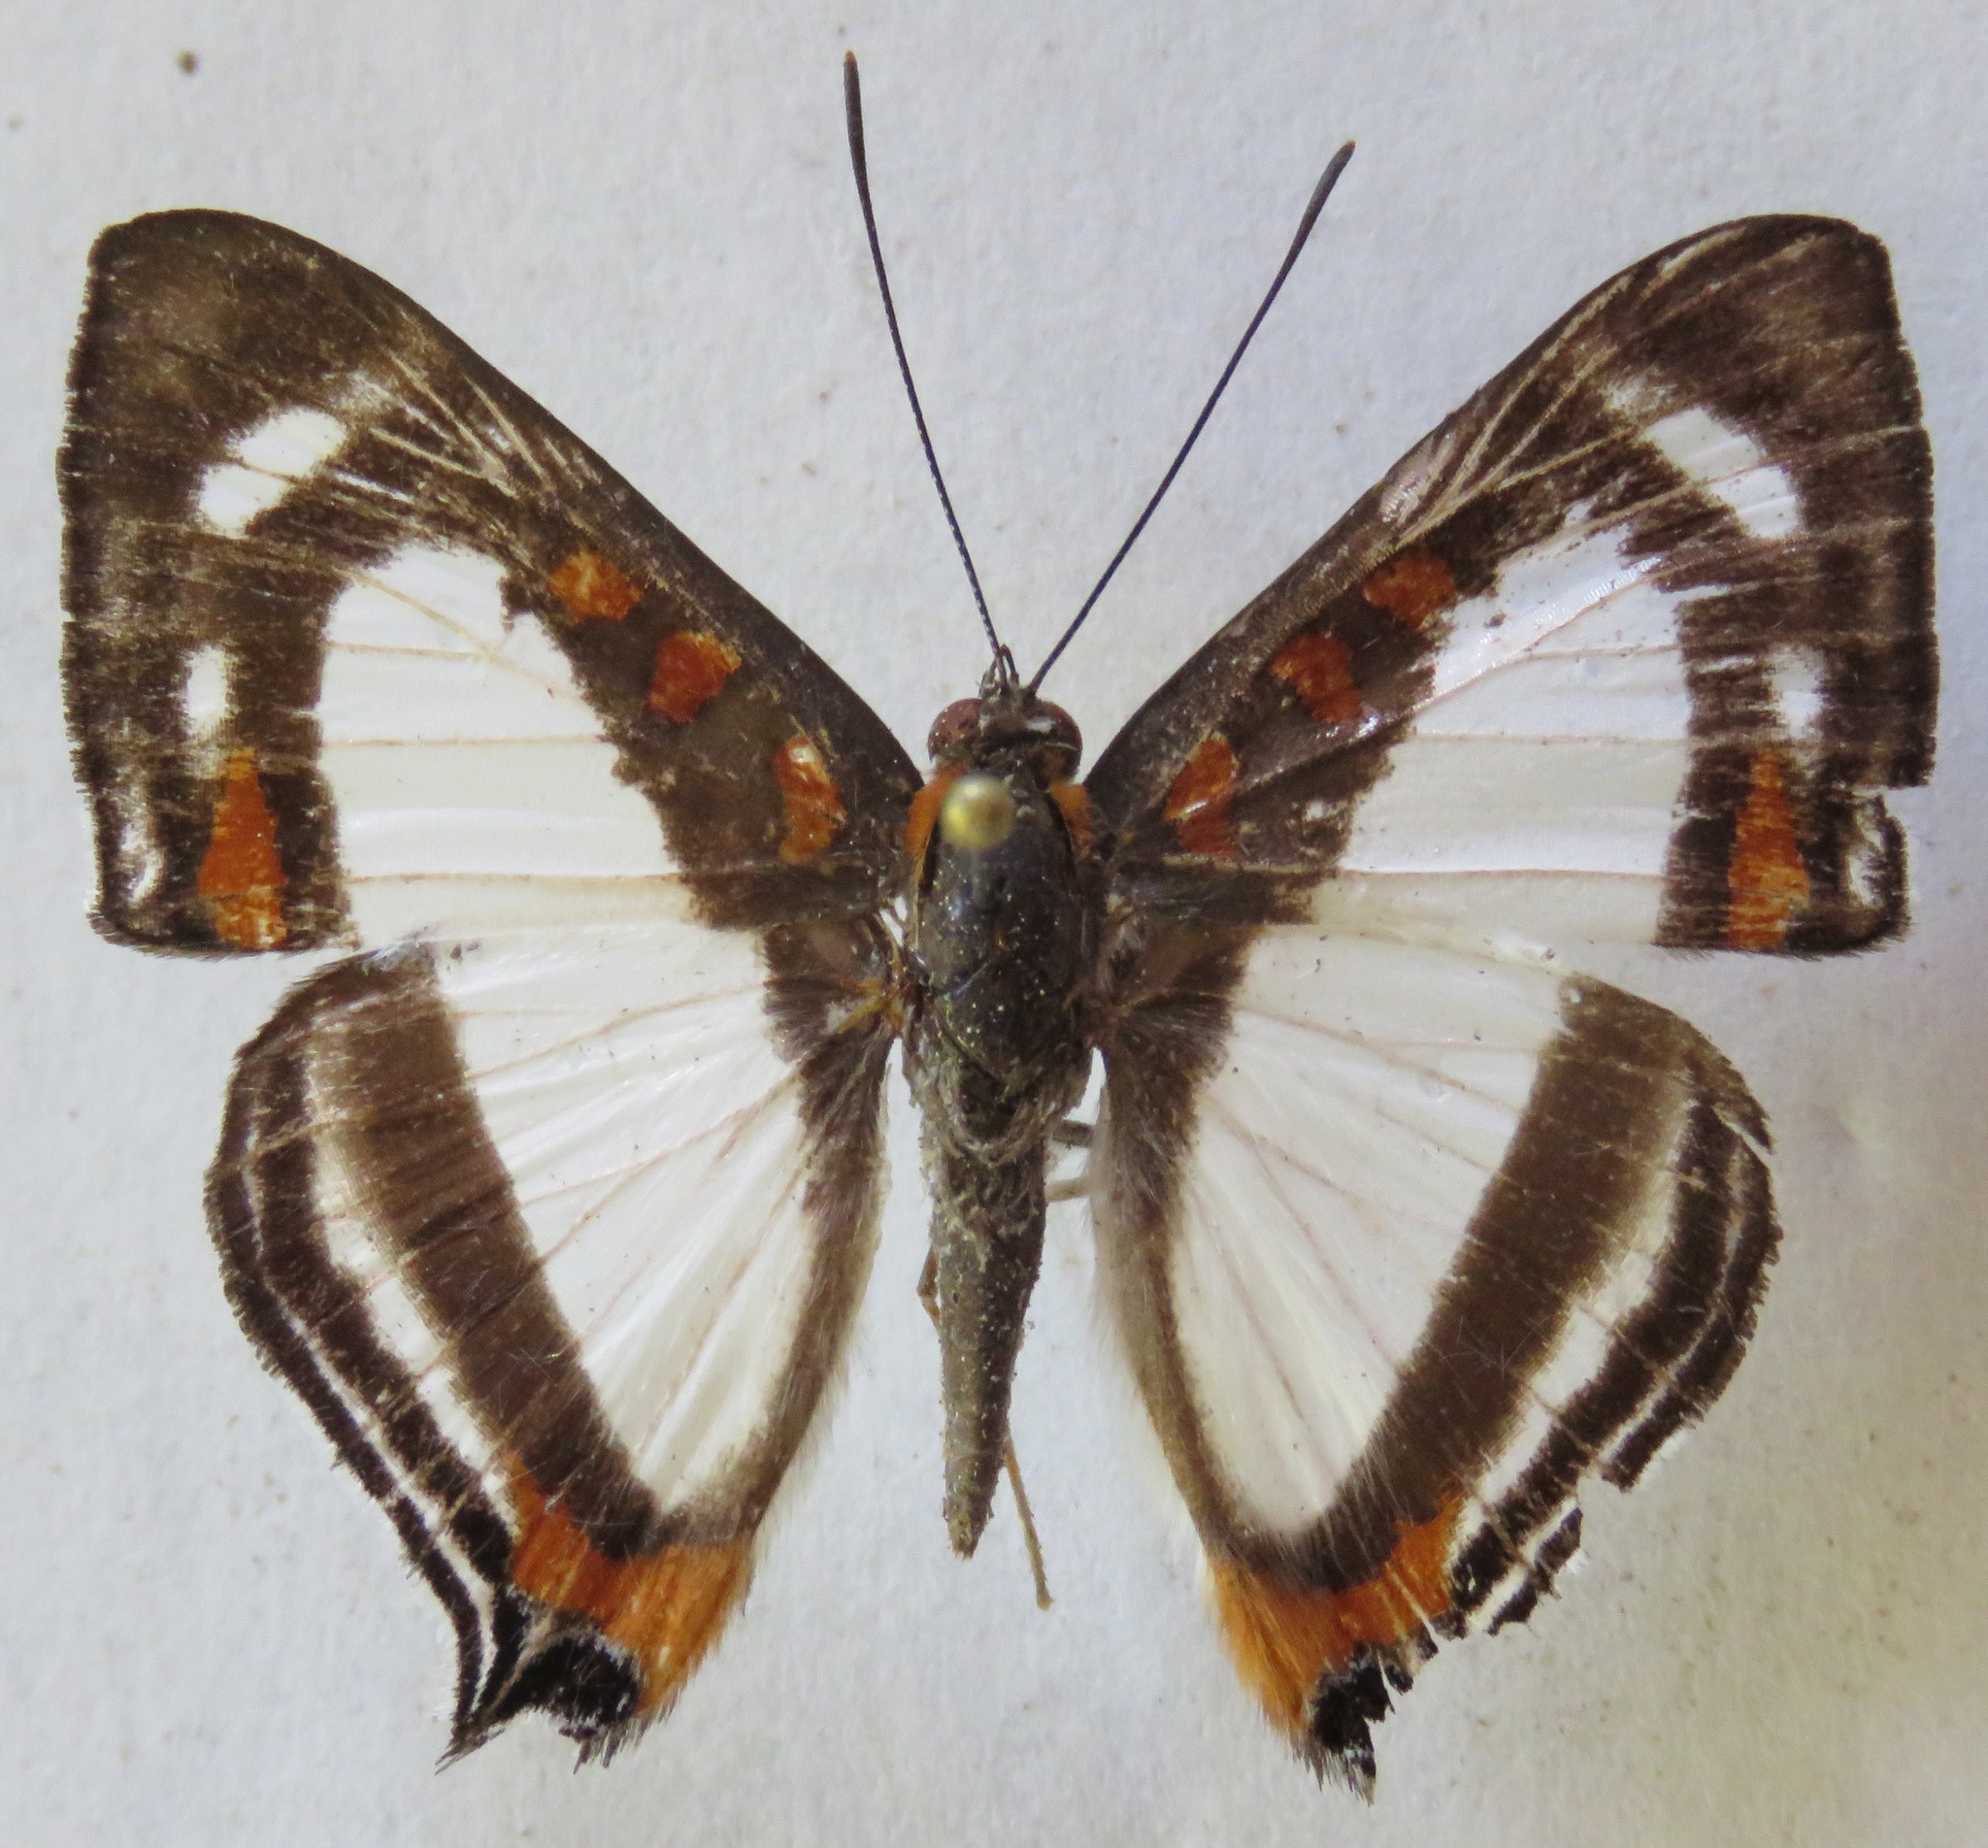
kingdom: Animalia
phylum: Arthropoda
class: Insecta
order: Lepidoptera
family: Riodinidae
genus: Thisbe
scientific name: Thisbe lycorias
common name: Banner metalmark
